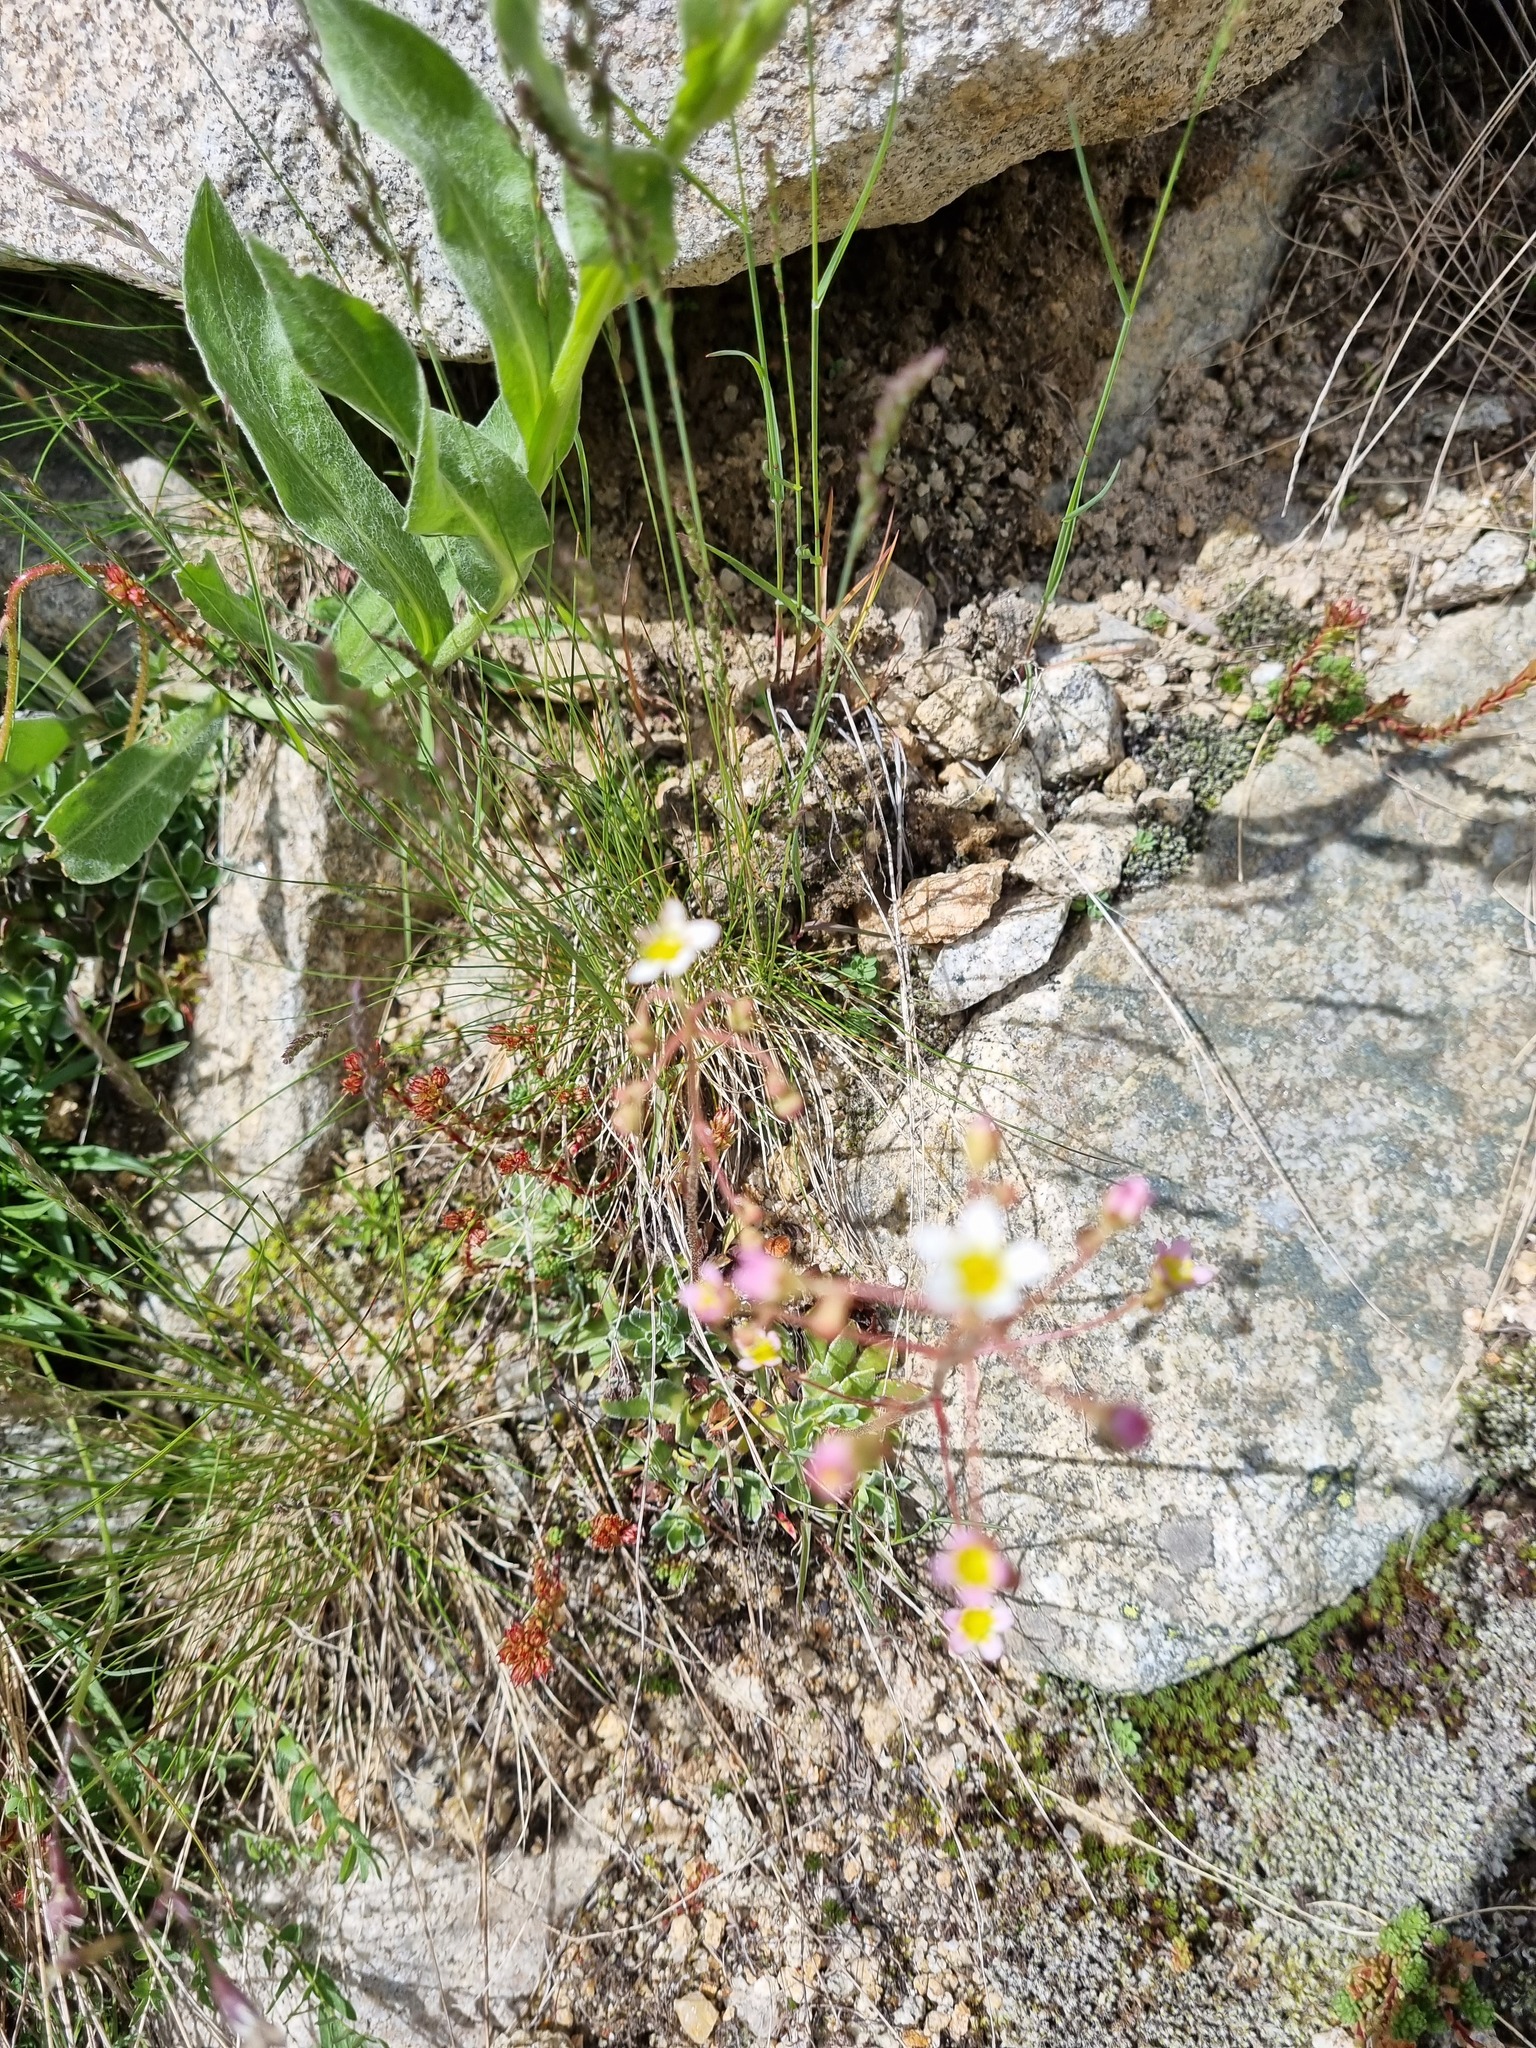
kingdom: Plantae
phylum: Tracheophyta
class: Magnoliopsida
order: Saxifragales
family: Saxifragaceae
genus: Saxifraga
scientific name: Saxifraga kolenatiana
